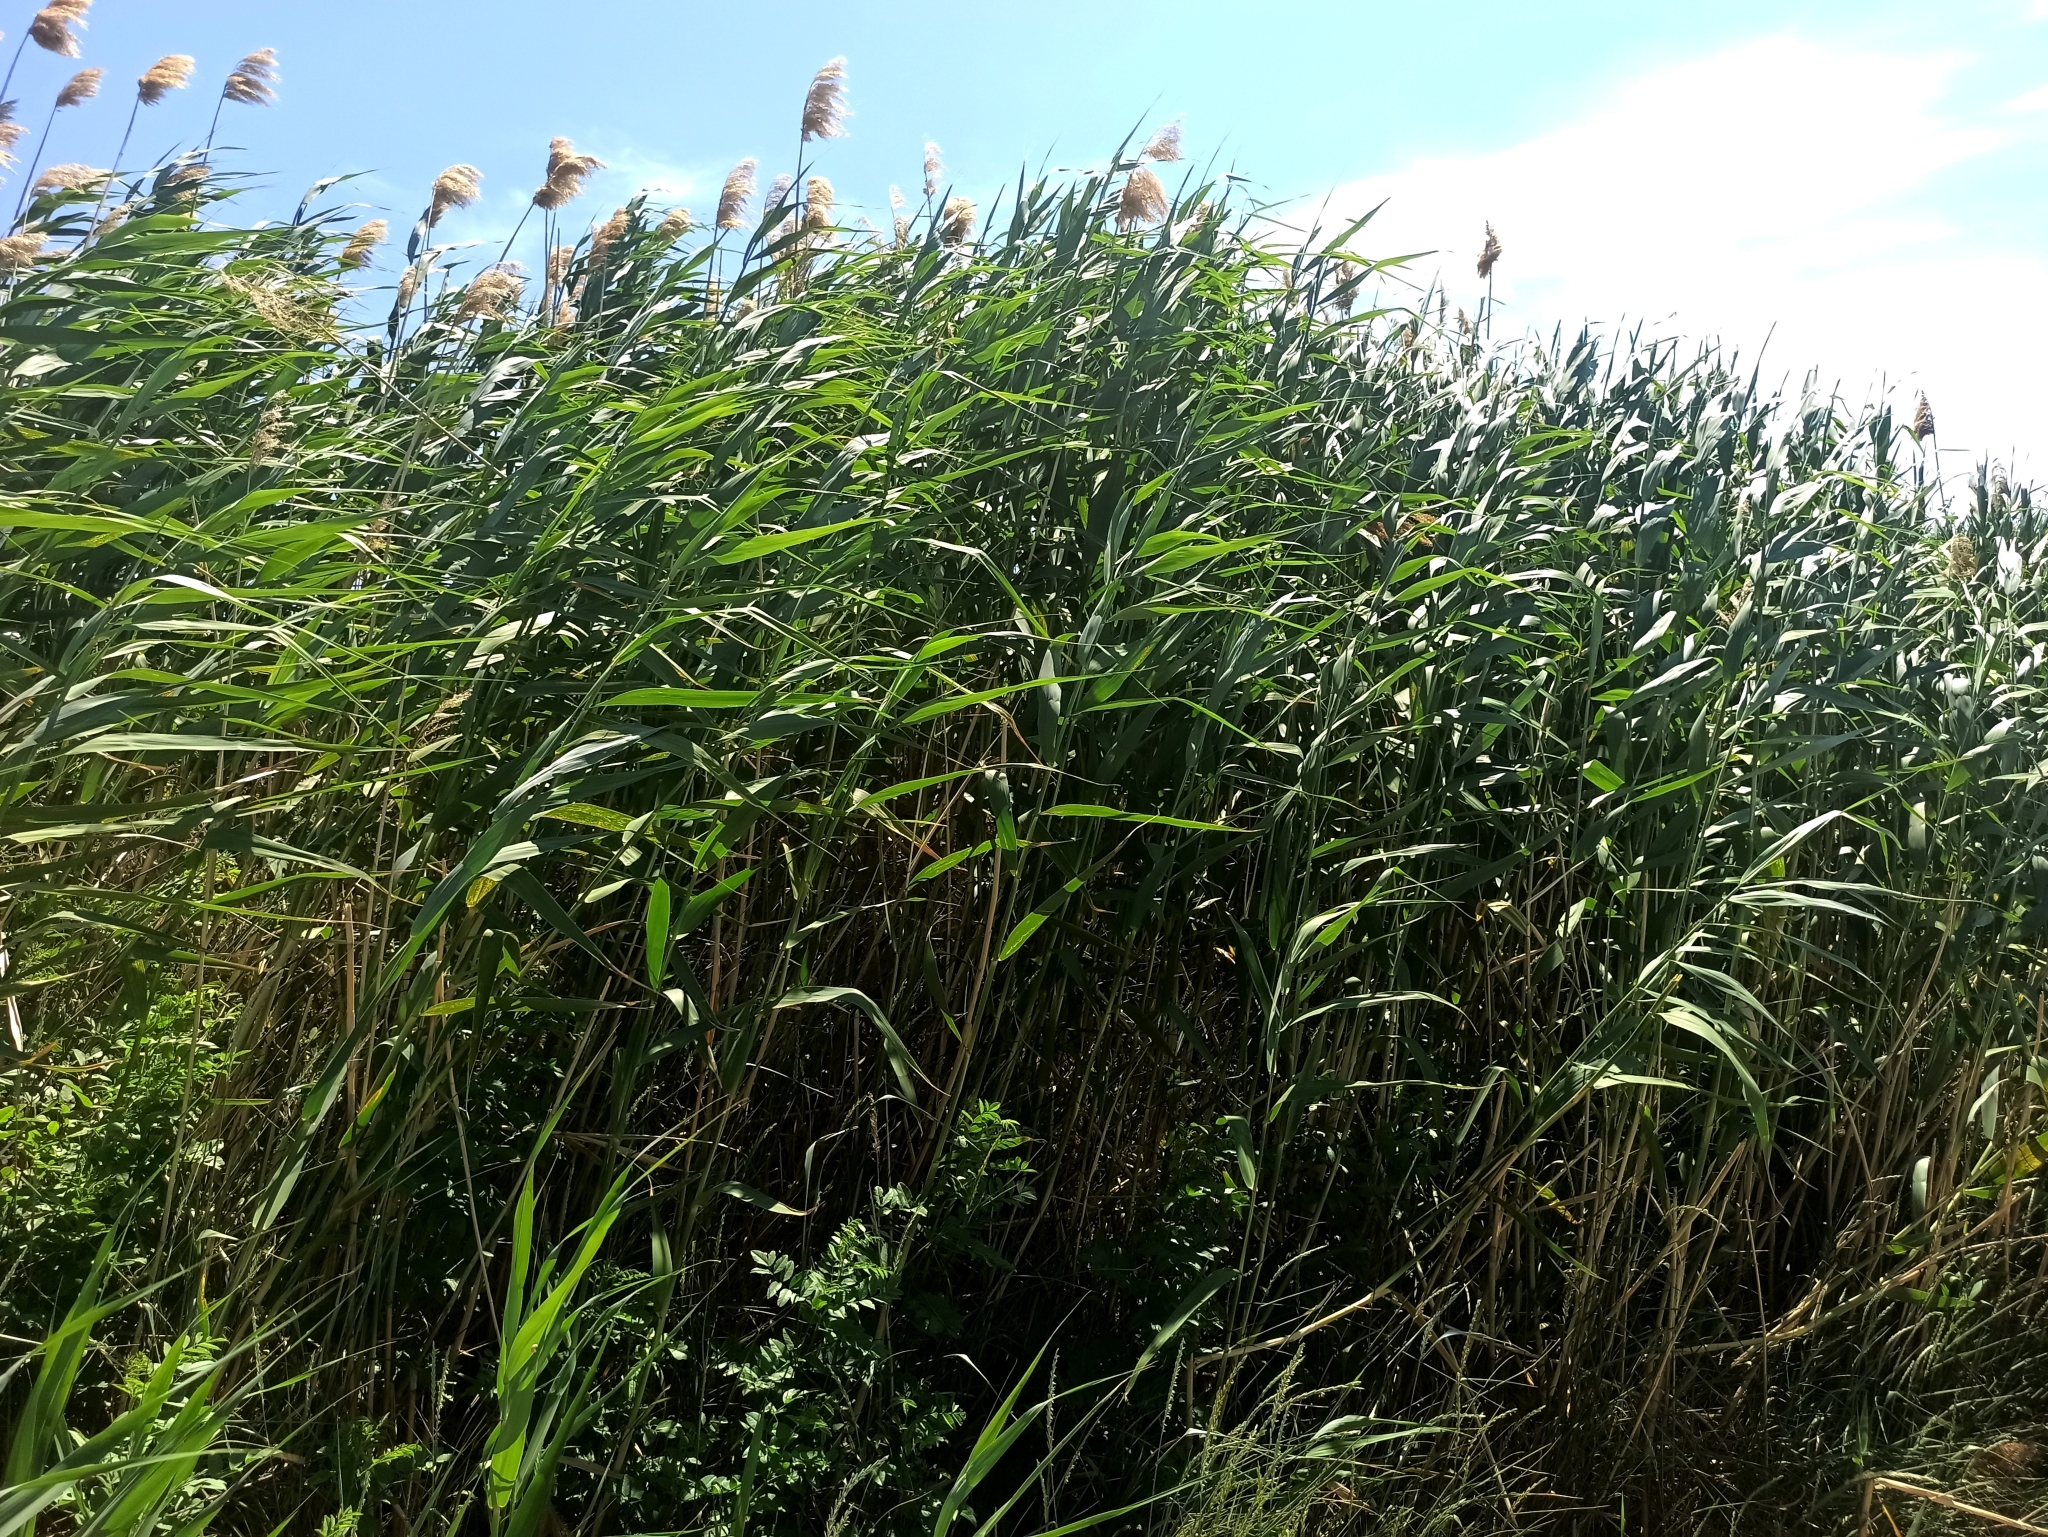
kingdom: Plantae
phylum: Tracheophyta
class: Liliopsida
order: Poales
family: Poaceae
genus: Phragmites
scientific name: Phragmites australis
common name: Common reed
